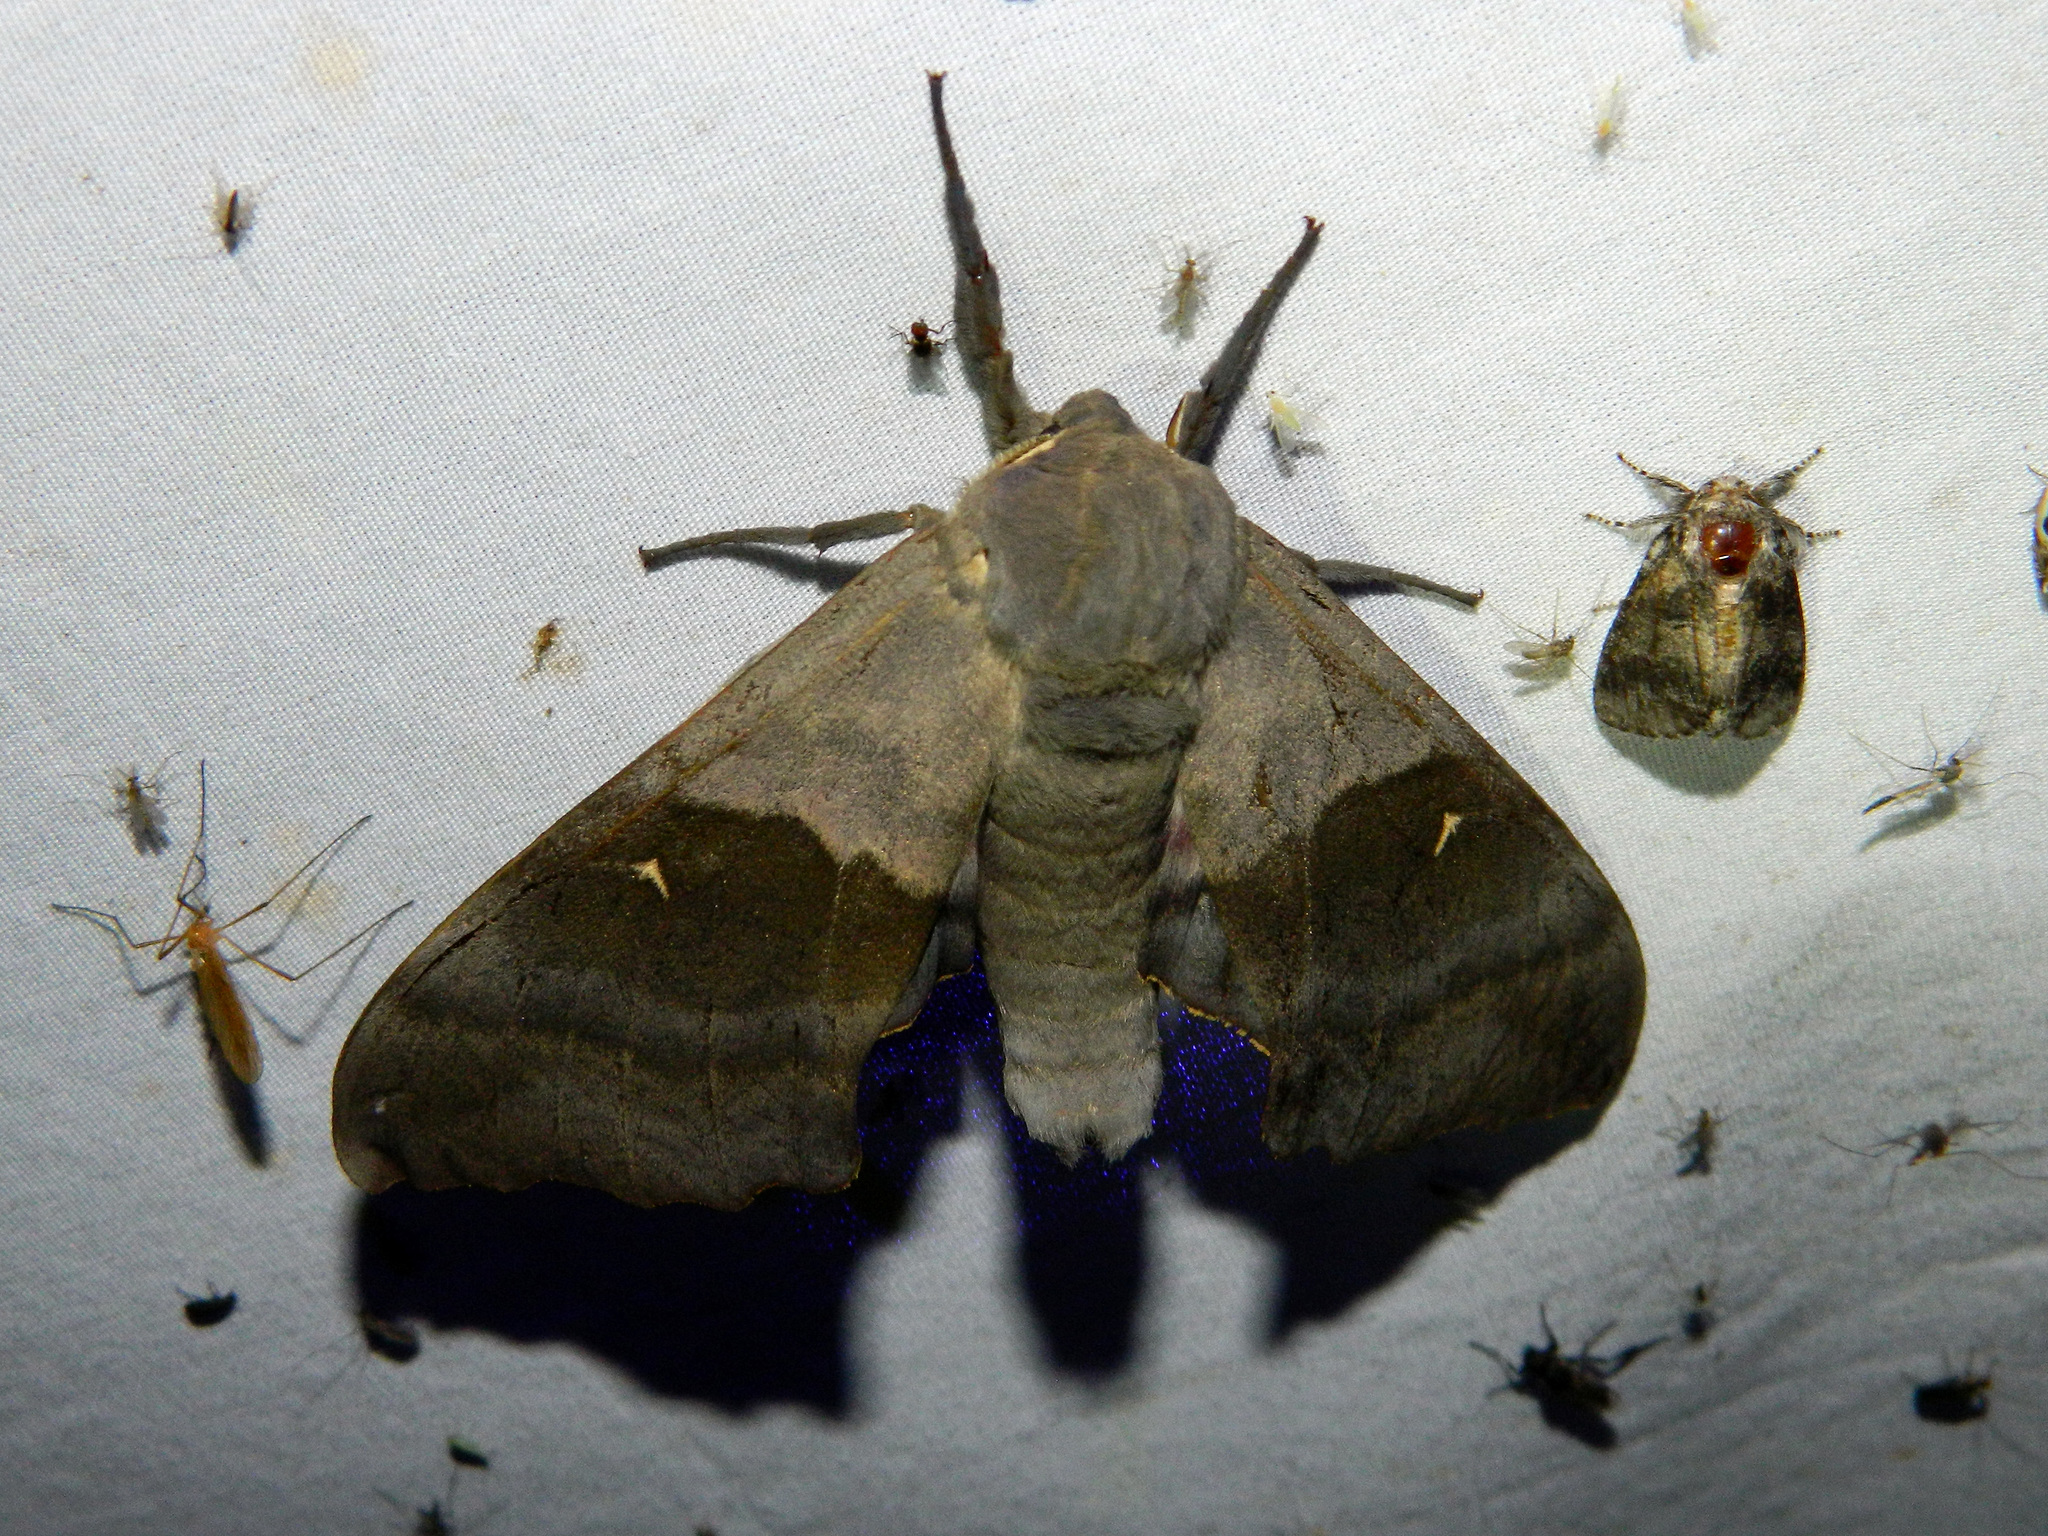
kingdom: Animalia
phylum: Arthropoda
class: Insecta
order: Lepidoptera
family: Sphingidae
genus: Pachysphinx
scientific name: Pachysphinx modesta
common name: Big poplar sphinx
